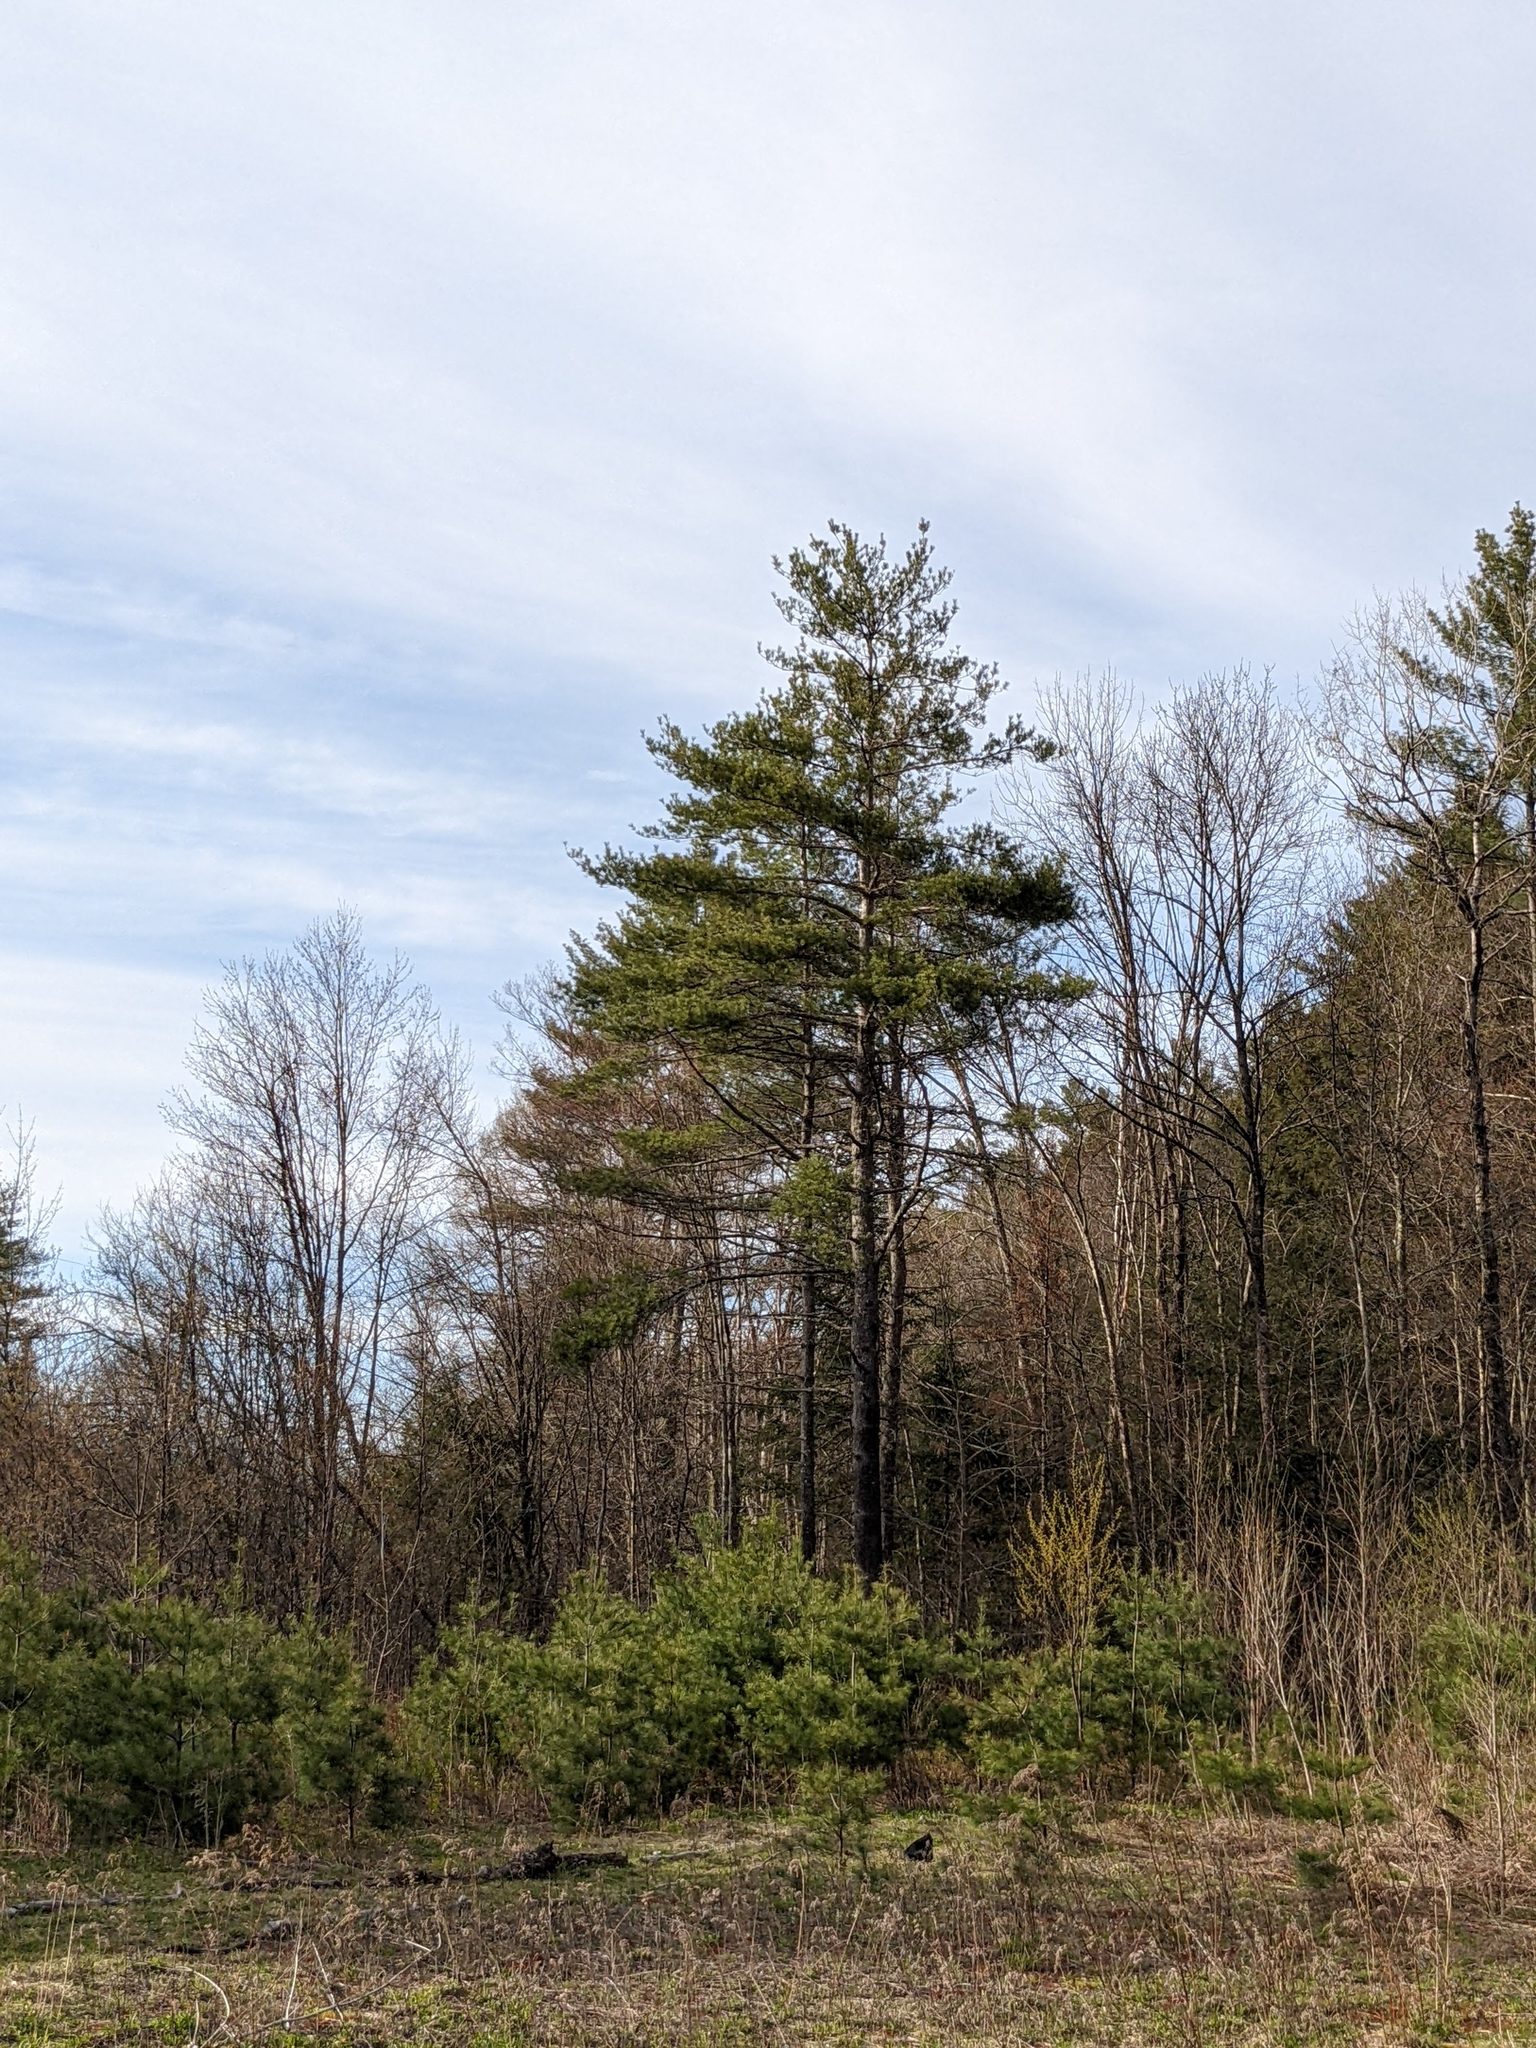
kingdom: Plantae
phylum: Tracheophyta
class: Pinopsida
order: Pinales
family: Pinaceae
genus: Pinus
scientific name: Pinus strobus
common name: Weymouth pine
